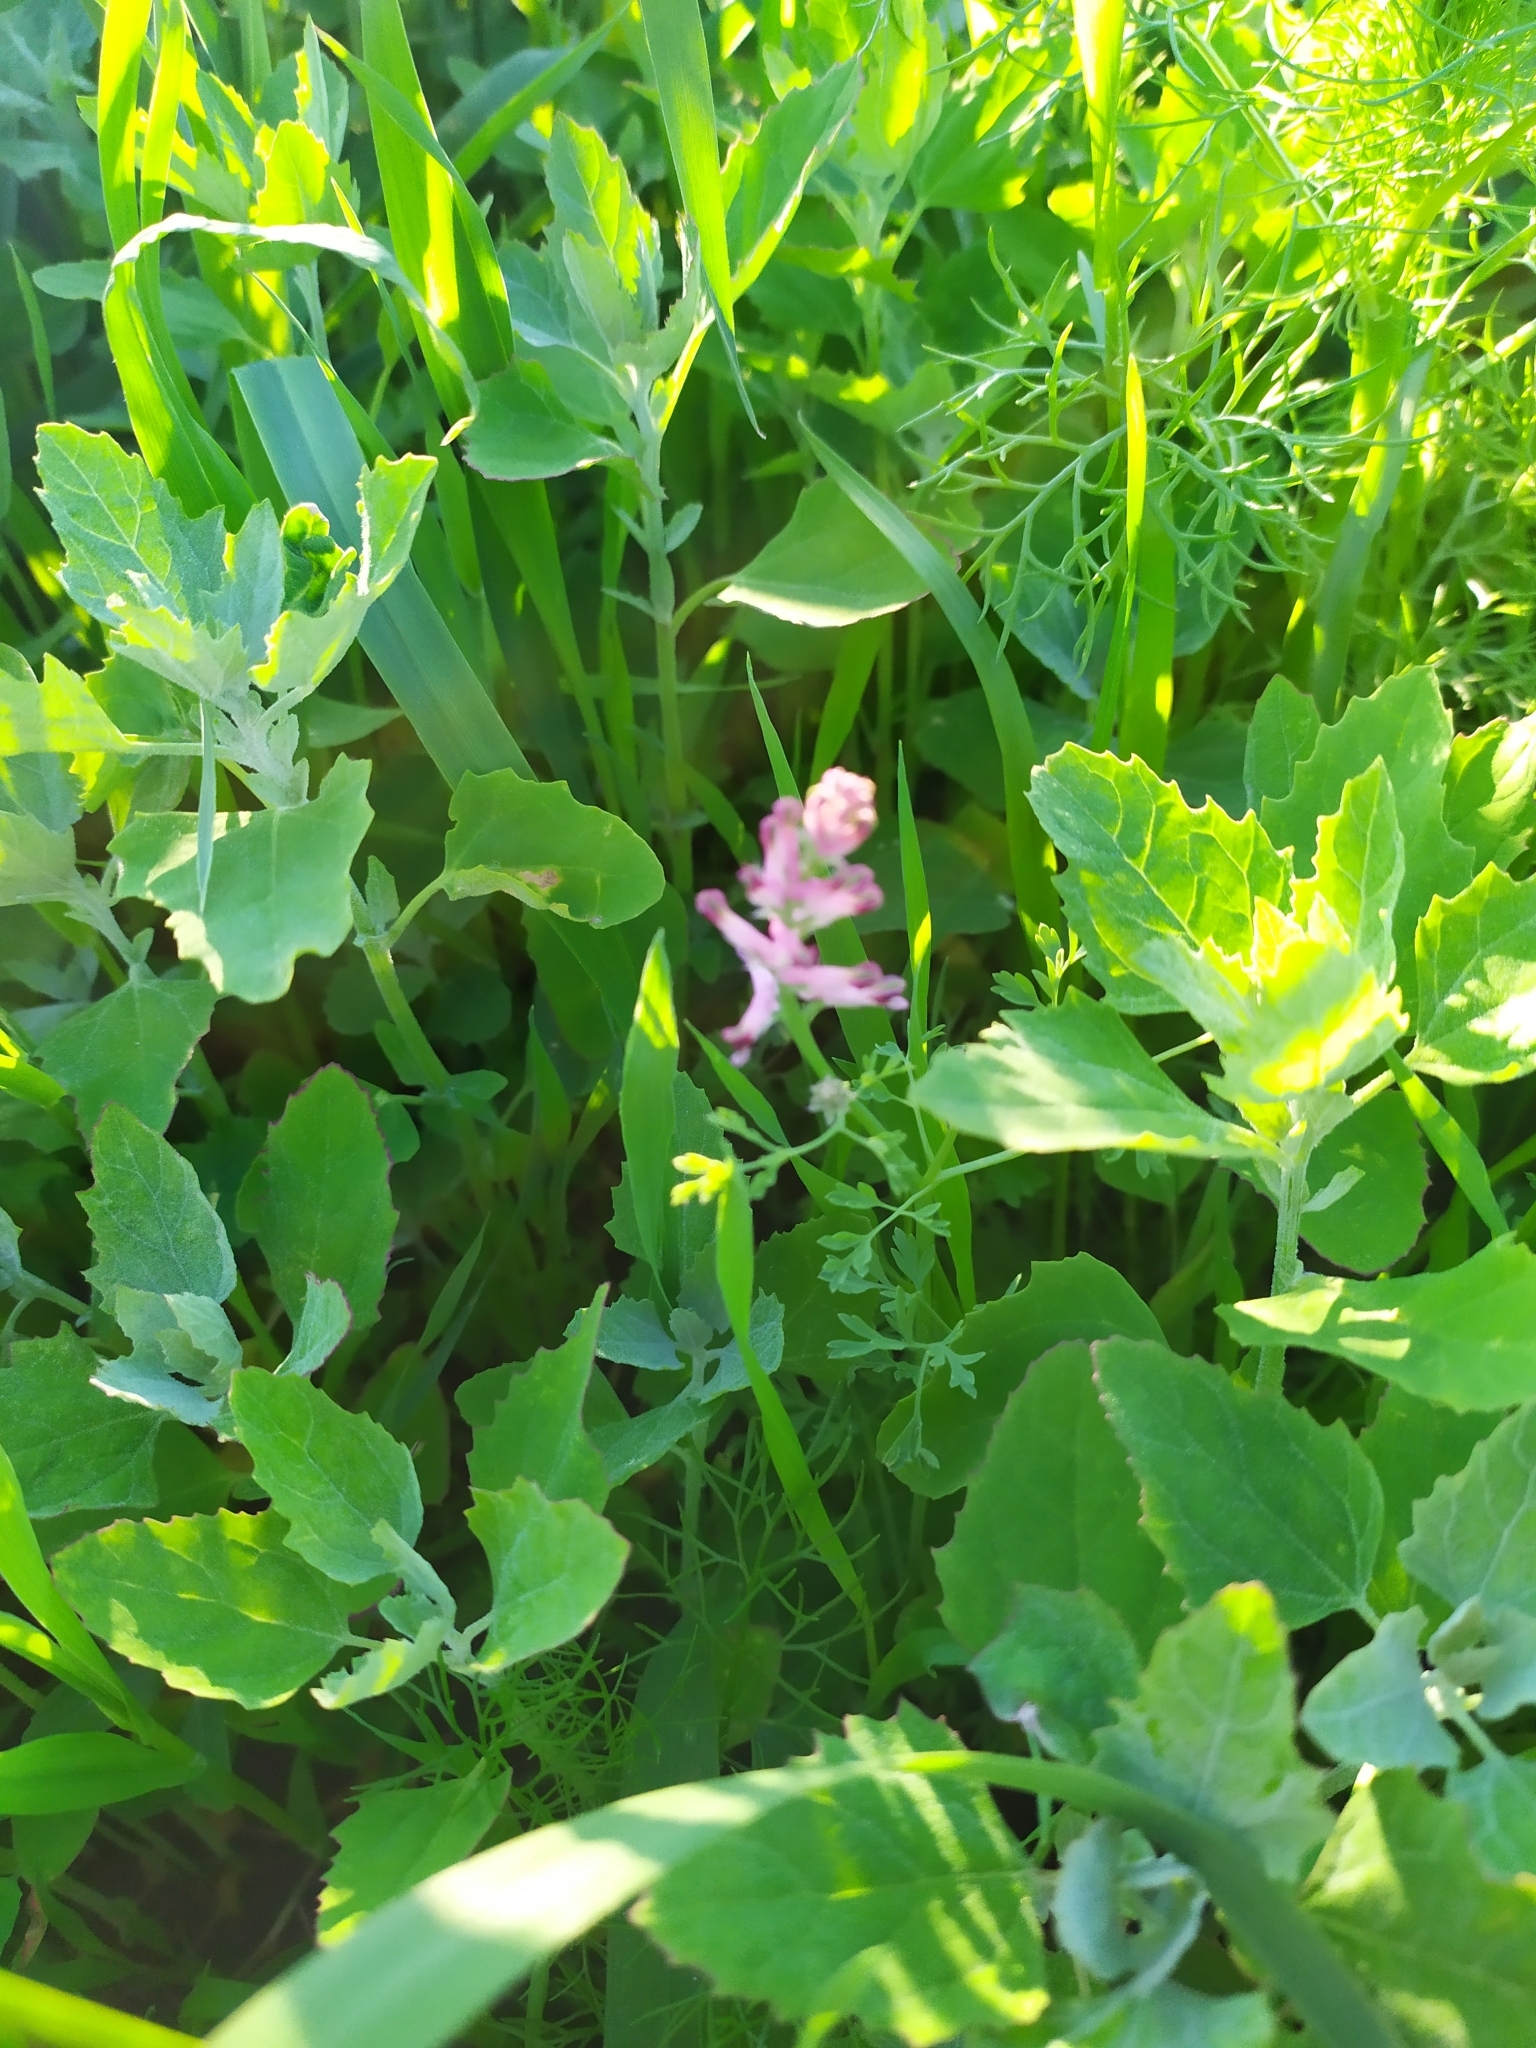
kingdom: Plantae
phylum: Tracheophyta
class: Magnoliopsida
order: Ranunculales
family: Papaveraceae
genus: Fumaria
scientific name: Fumaria officinalis
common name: Common fumitory
